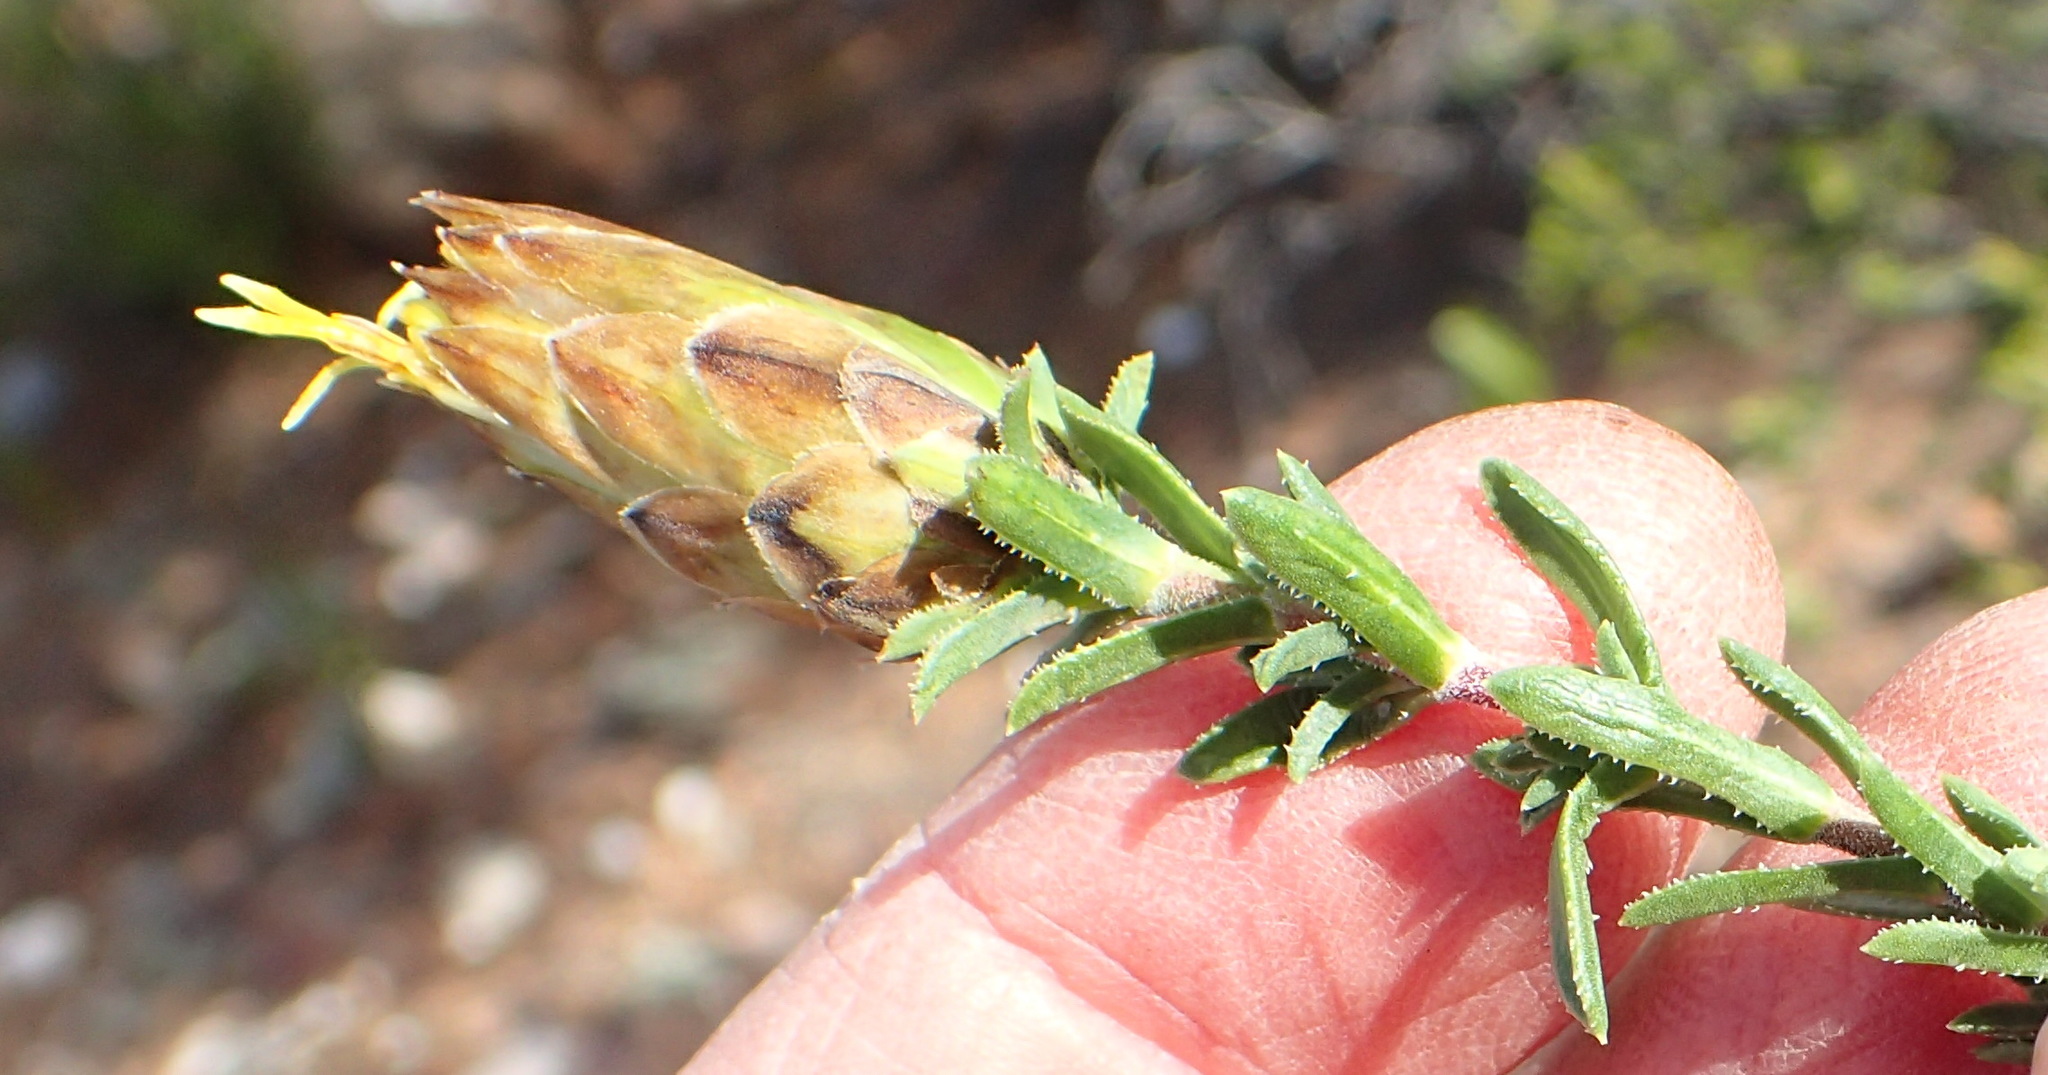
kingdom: Plantae
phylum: Tracheophyta
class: Magnoliopsida
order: Asterales
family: Asteraceae
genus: Pteronia
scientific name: Pteronia staehelinoides
